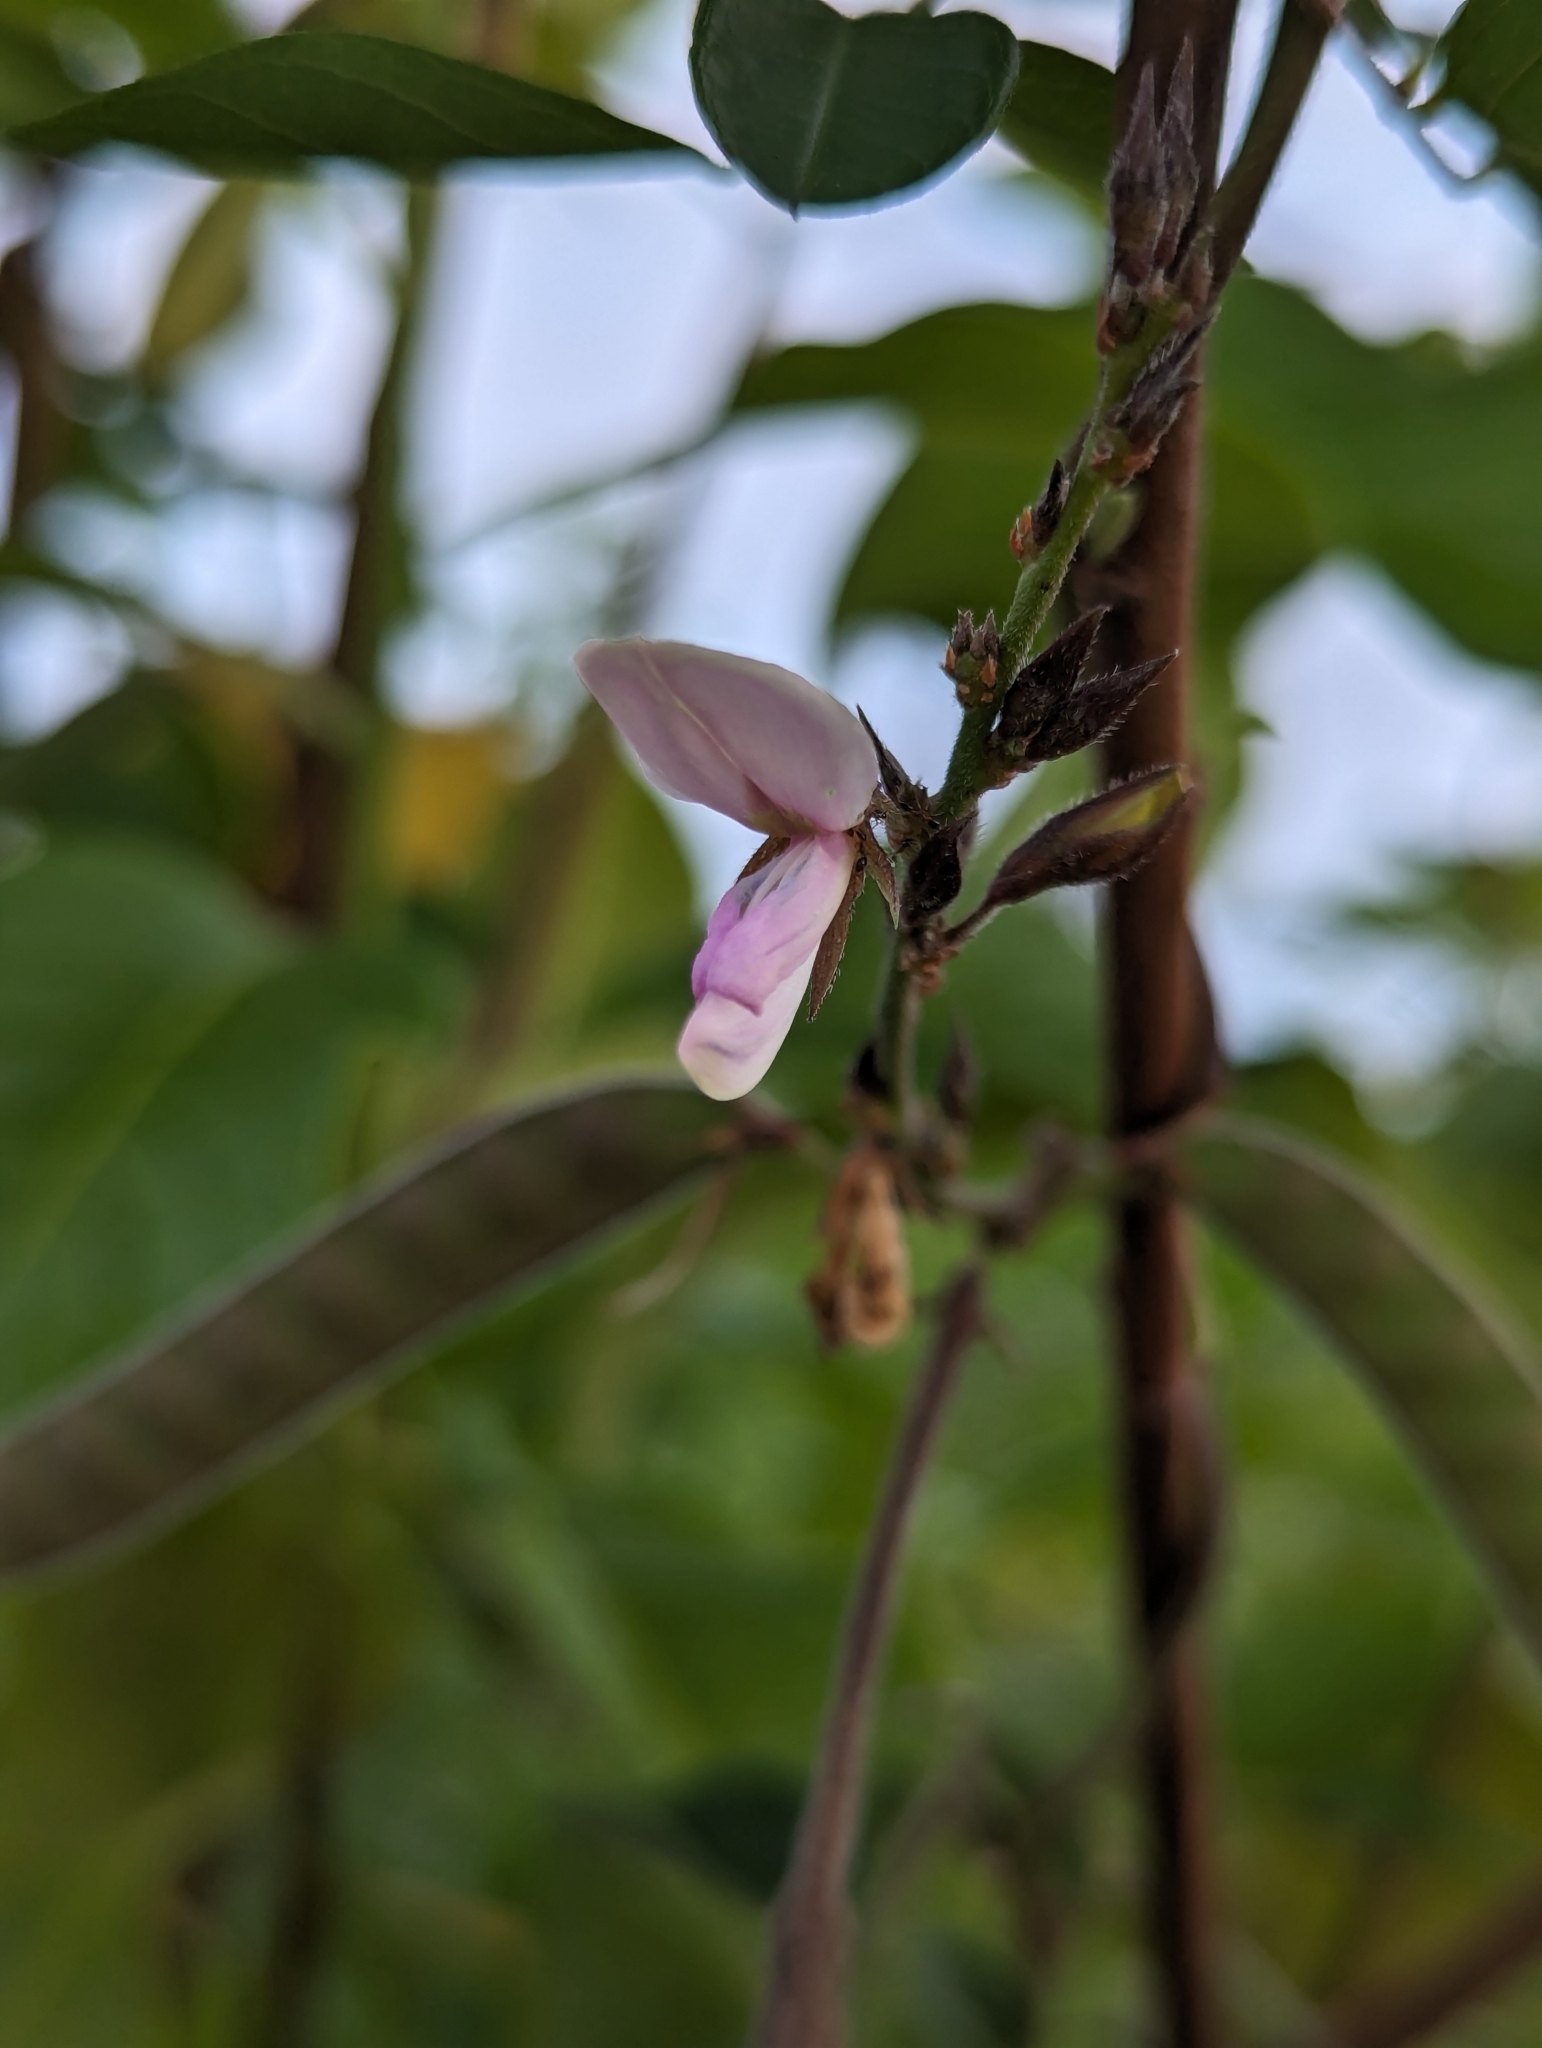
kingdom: Plantae
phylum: Tracheophyta
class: Magnoliopsida
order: Fabales
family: Fabaceae
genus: Galactia
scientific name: Galactia striata
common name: Florida hammock milkpea
